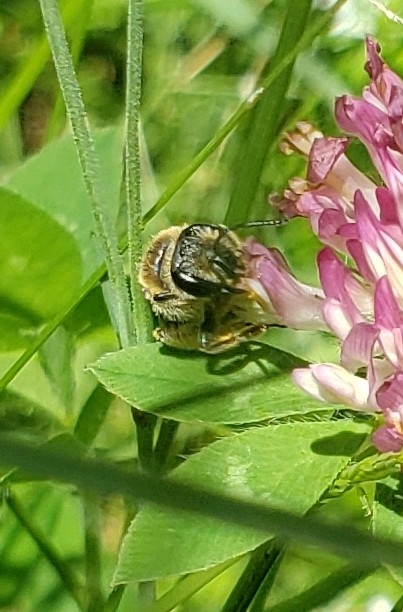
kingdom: Animalia
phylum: Arthropoda
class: Insecta
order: Hymenoptera
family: Andrenidae
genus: Andrena
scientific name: Andrena wilkella
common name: Wilke's mining bee
